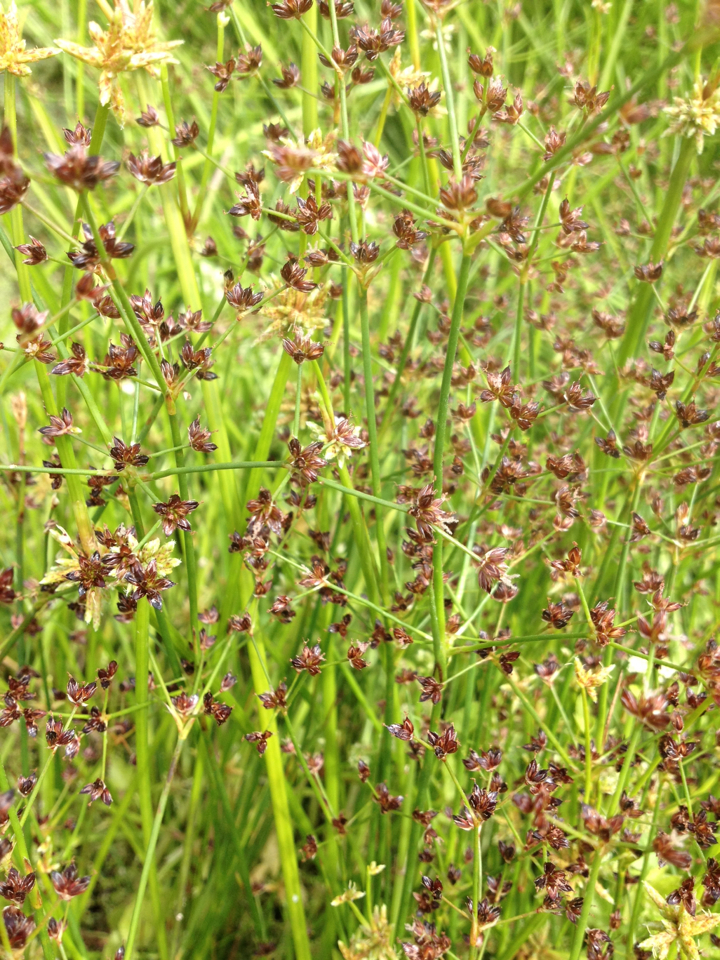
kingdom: Plantae
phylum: Tracheophyta
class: Liliopsida
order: Poales
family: Juncaceae
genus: Juncus
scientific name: Juncus articulatus
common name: Jointed rush
